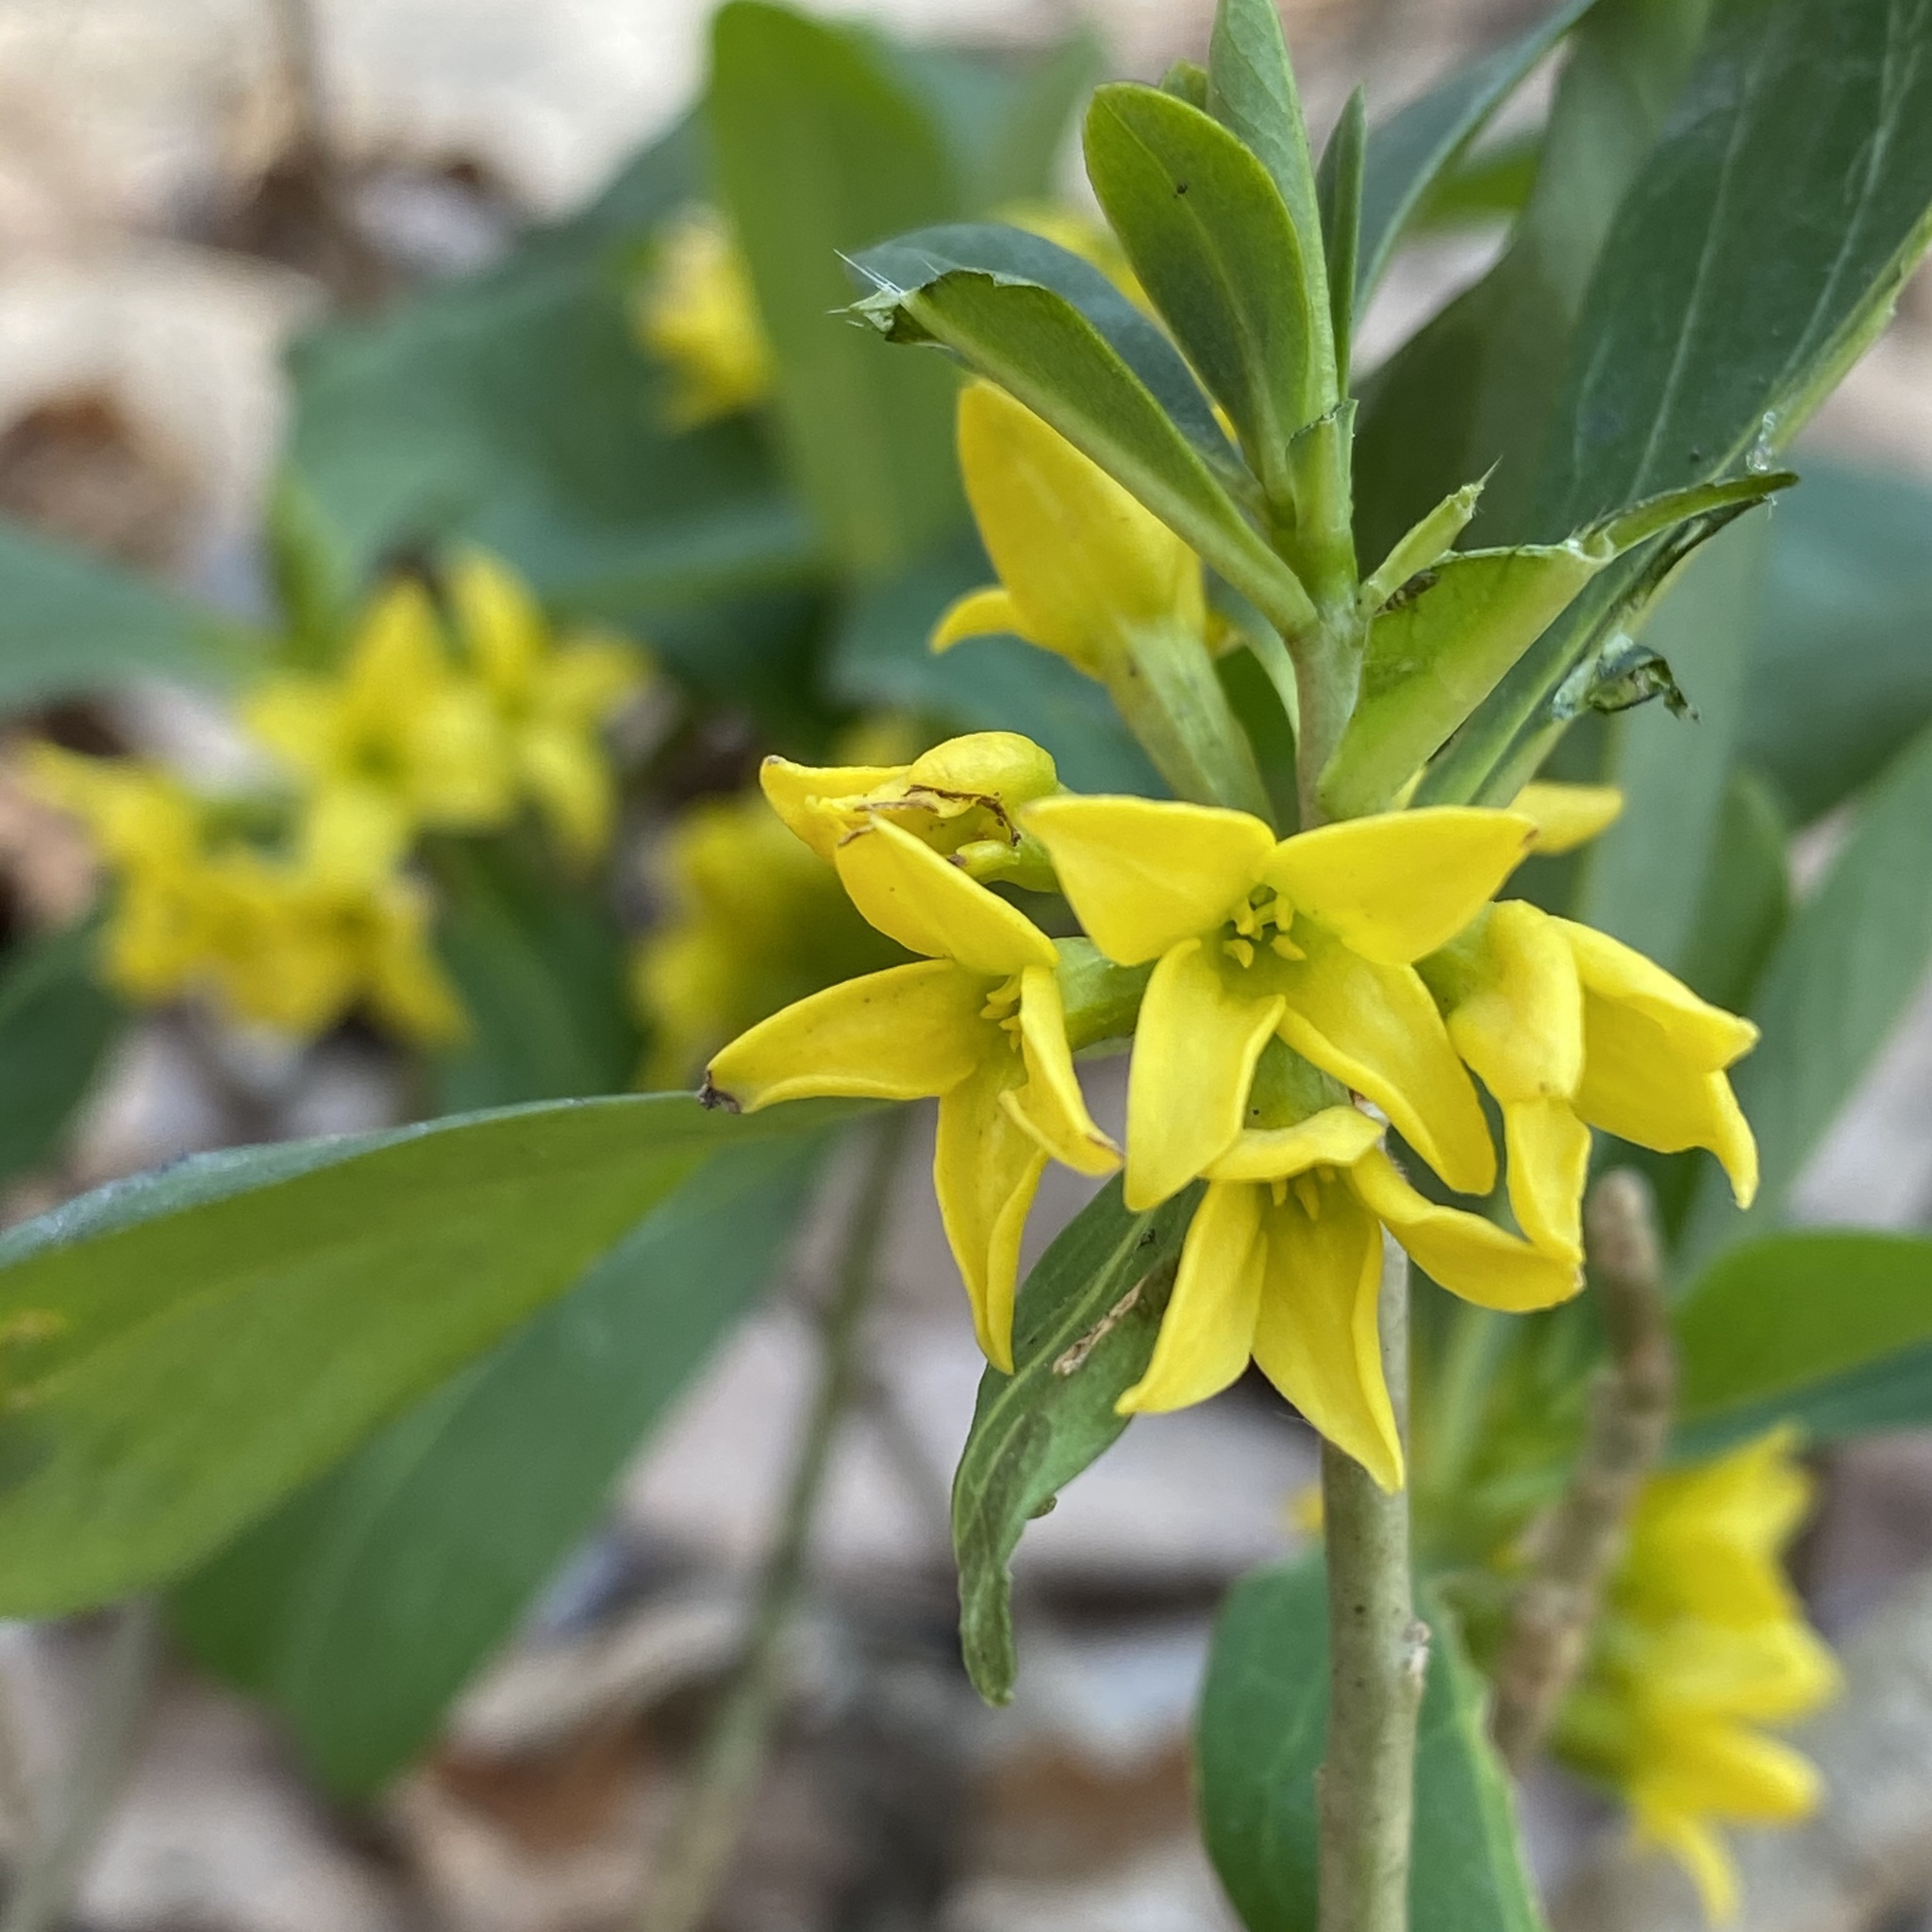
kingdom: Plantae
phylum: Tracheophyta
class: Magnoliopsida
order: Malvales
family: Thymelaeaceae
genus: Daphne
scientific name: Daphne jezoensis
